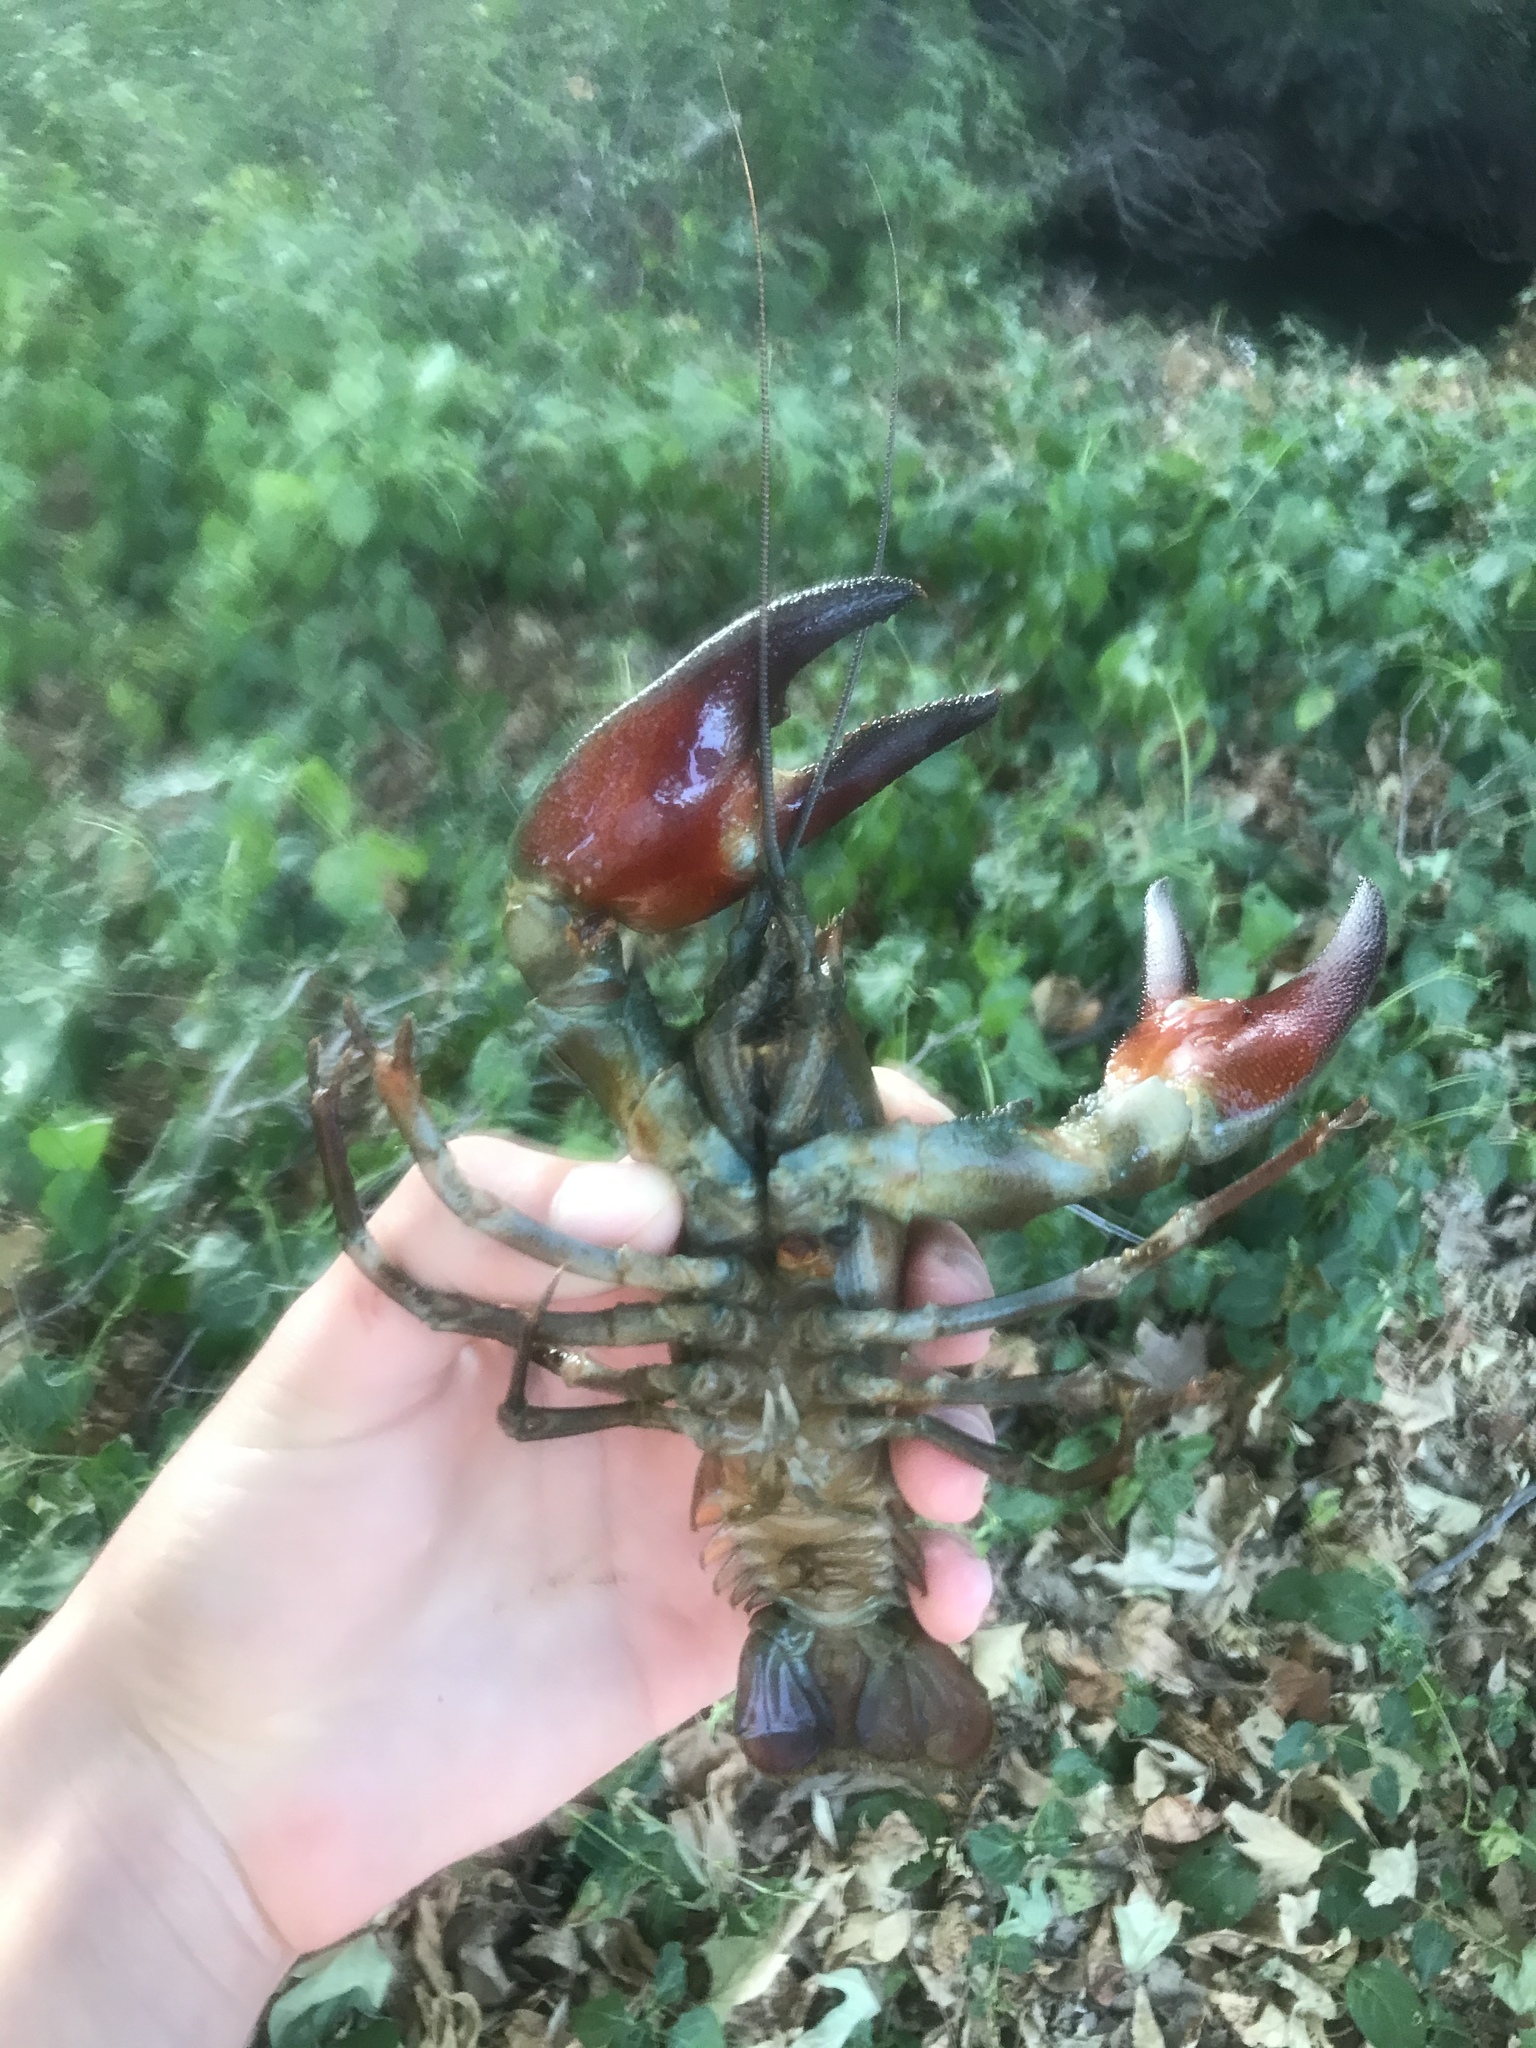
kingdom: Animalia
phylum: Arthropoda
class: Malacostraca
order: Decapoda
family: Astacidae
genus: Pacifastacus
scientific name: Pacifastacus leniusculus
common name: Signal crayfish
